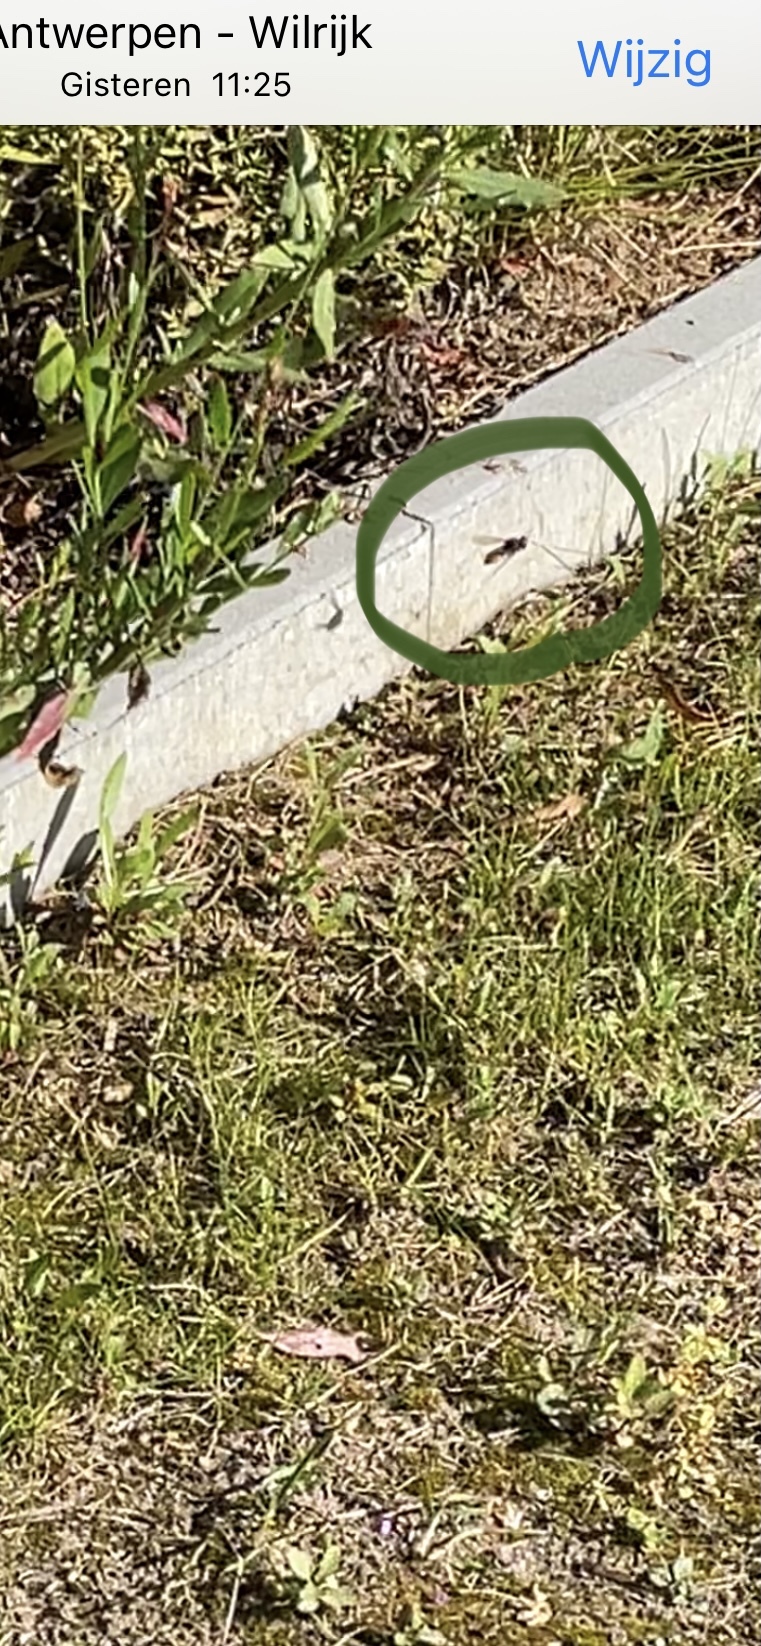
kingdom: Animalia
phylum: Arthropoda
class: Insecta
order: Hymenoptera
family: Vespidae
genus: Vespa
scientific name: Vespa crabro
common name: Hornet
